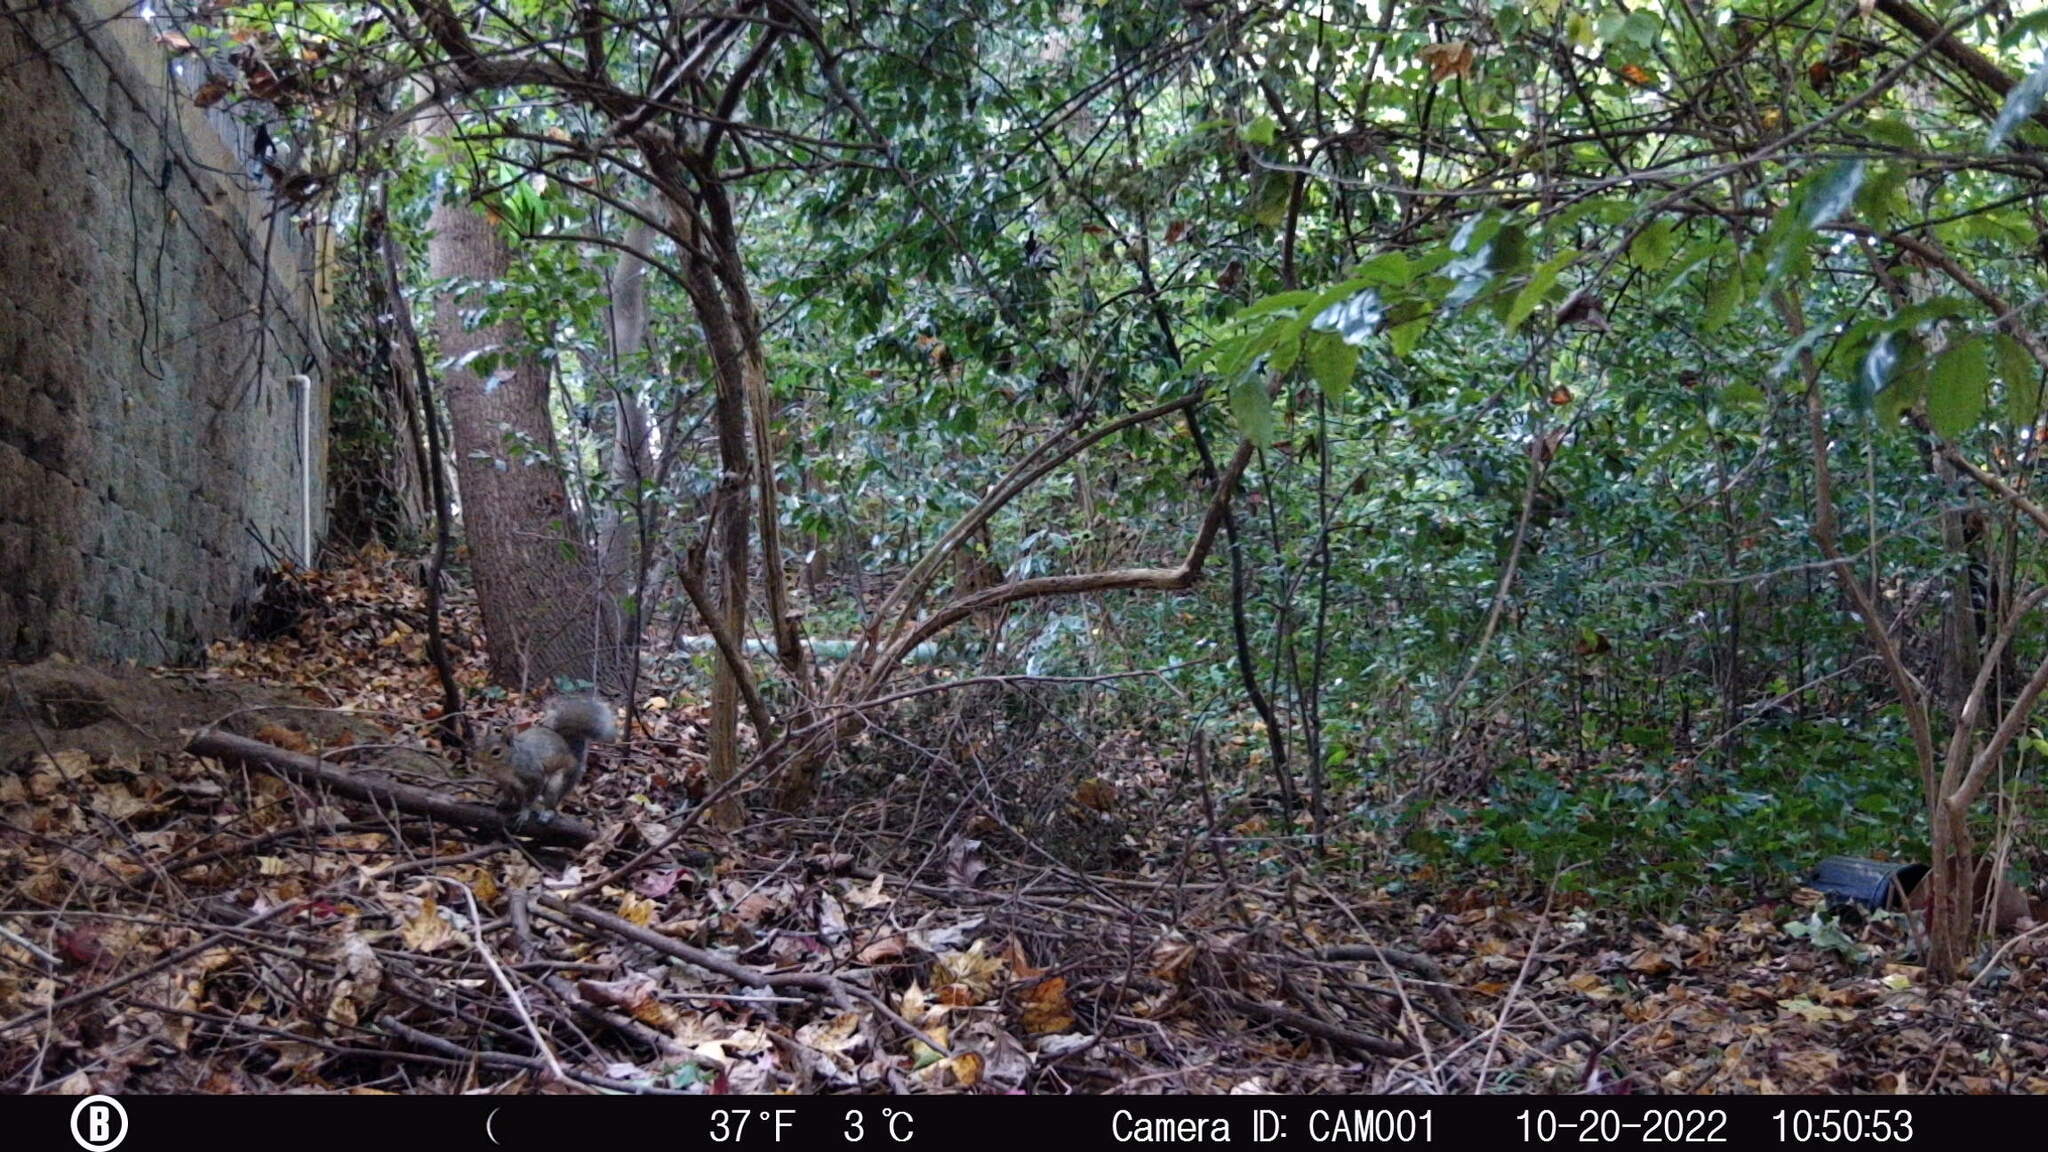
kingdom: Animalia
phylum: Chordata
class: Mammalia
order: Rodentia
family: Sciuridae
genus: Sciurus
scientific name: Sciurus carolinensis
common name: Eastern gray squirrel
